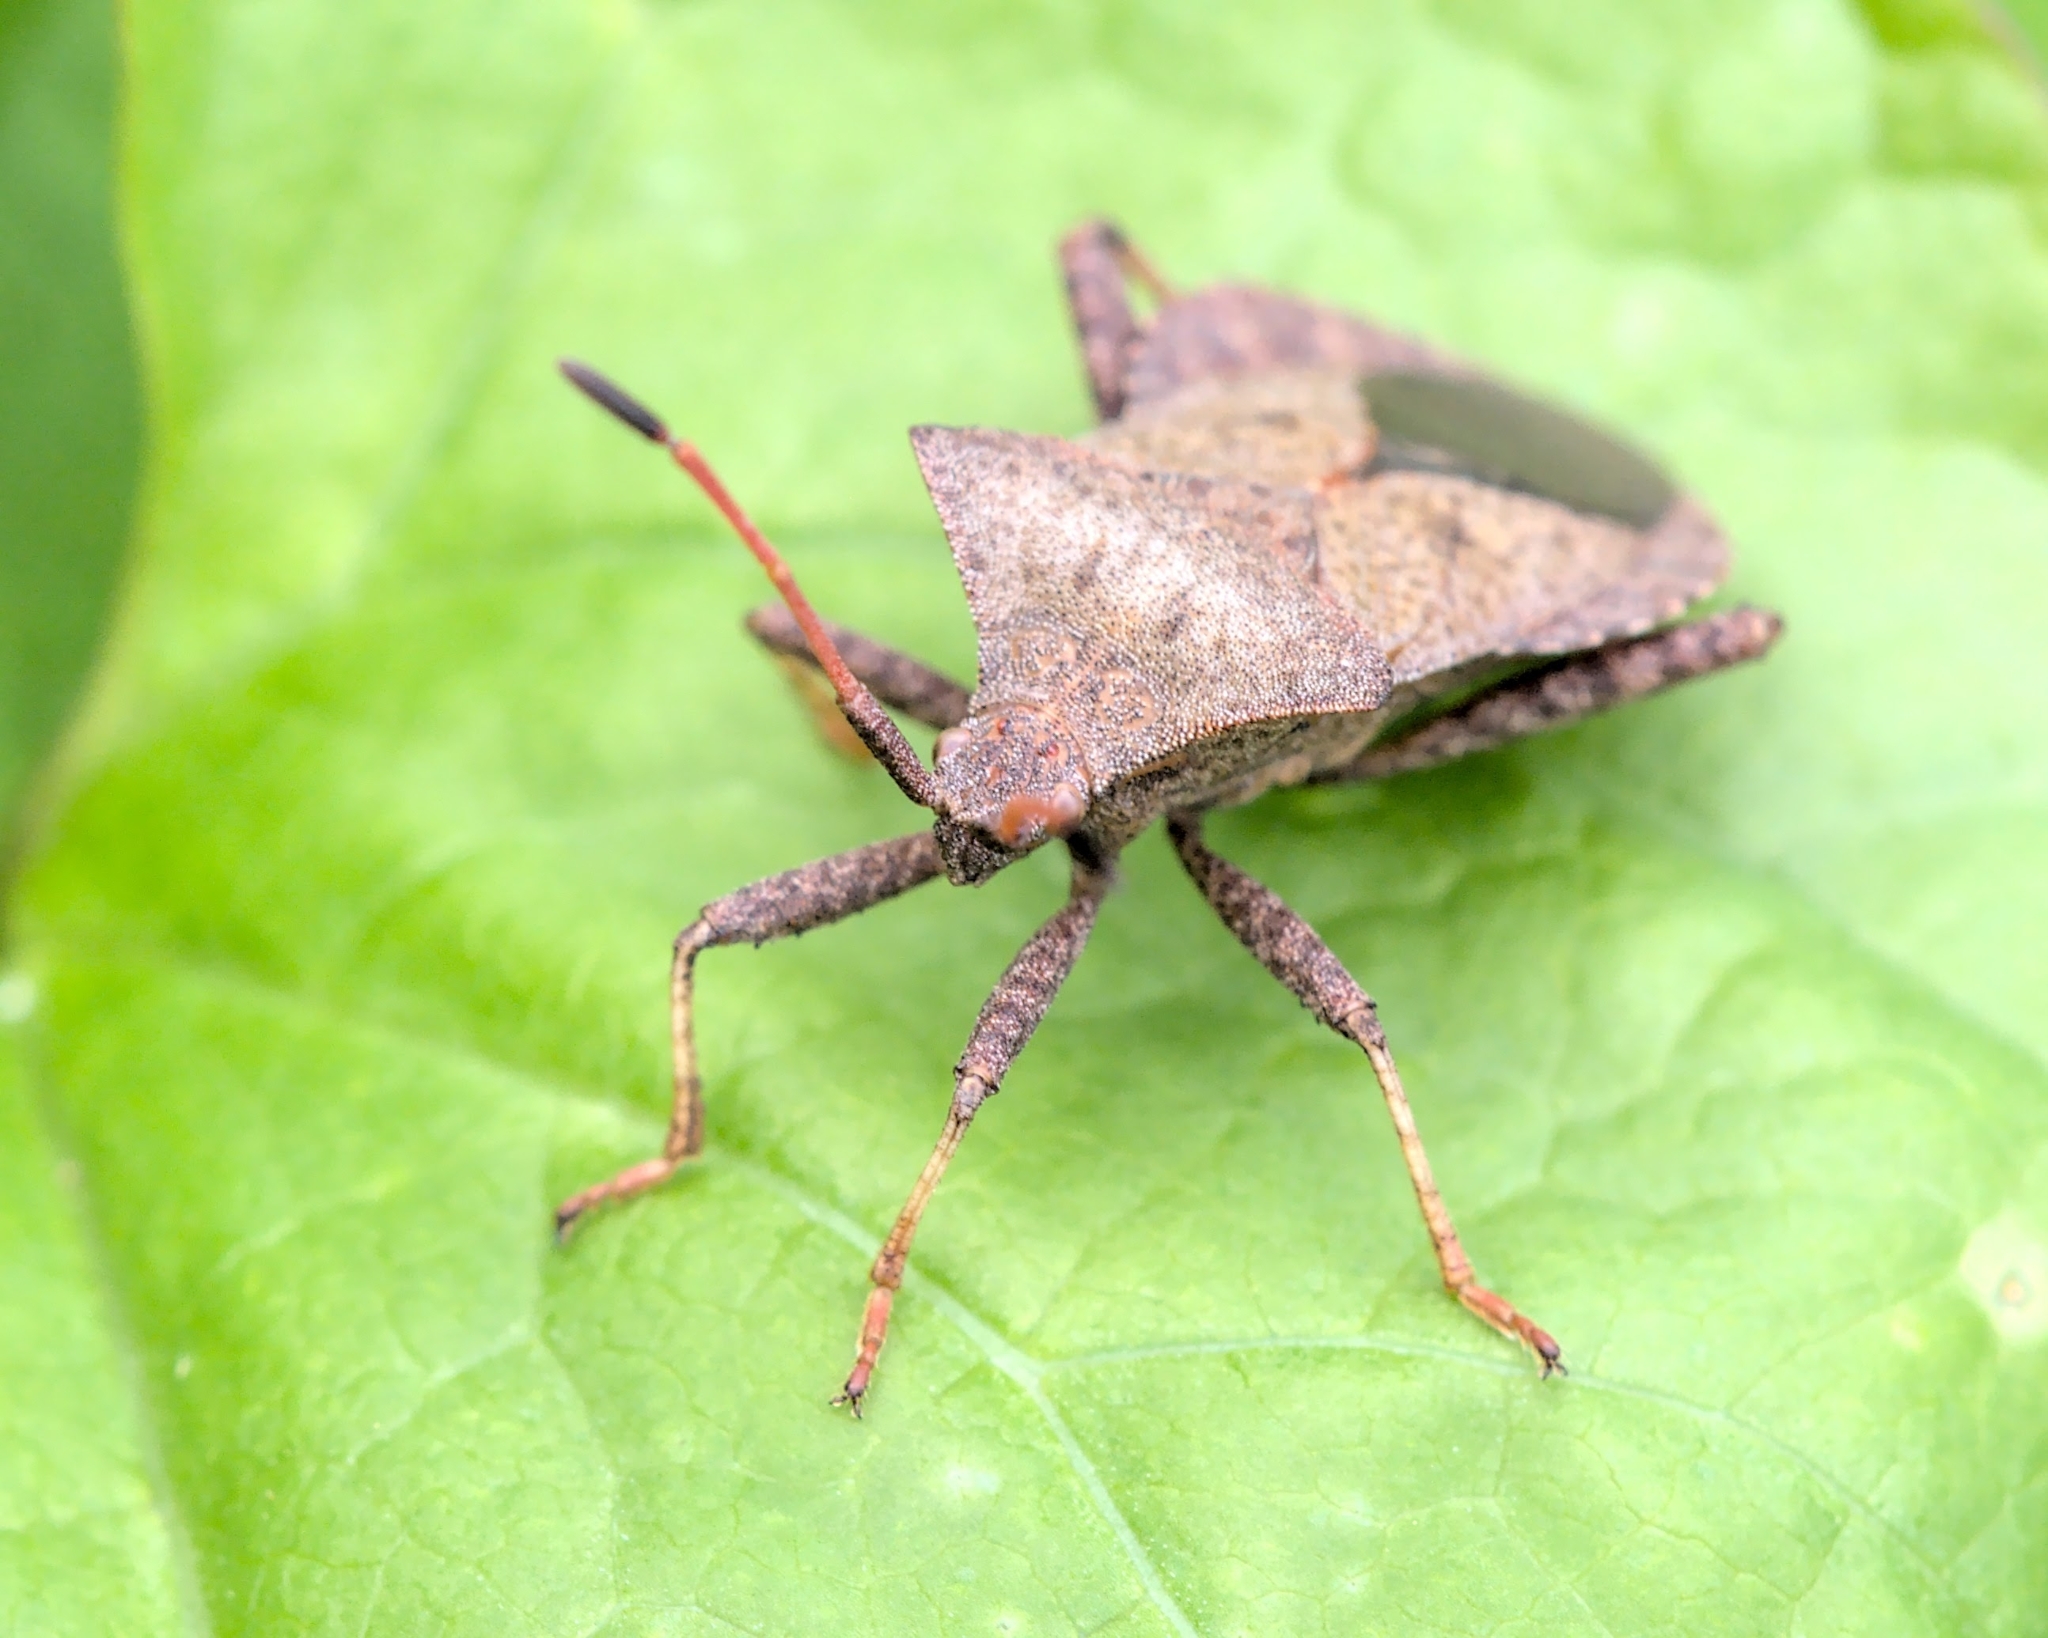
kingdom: Animalia
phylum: Arthropoda
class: Insecta
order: Hemiptera
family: Coreidae
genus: Coreus
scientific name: Coreus marginatus
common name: Dock bug
